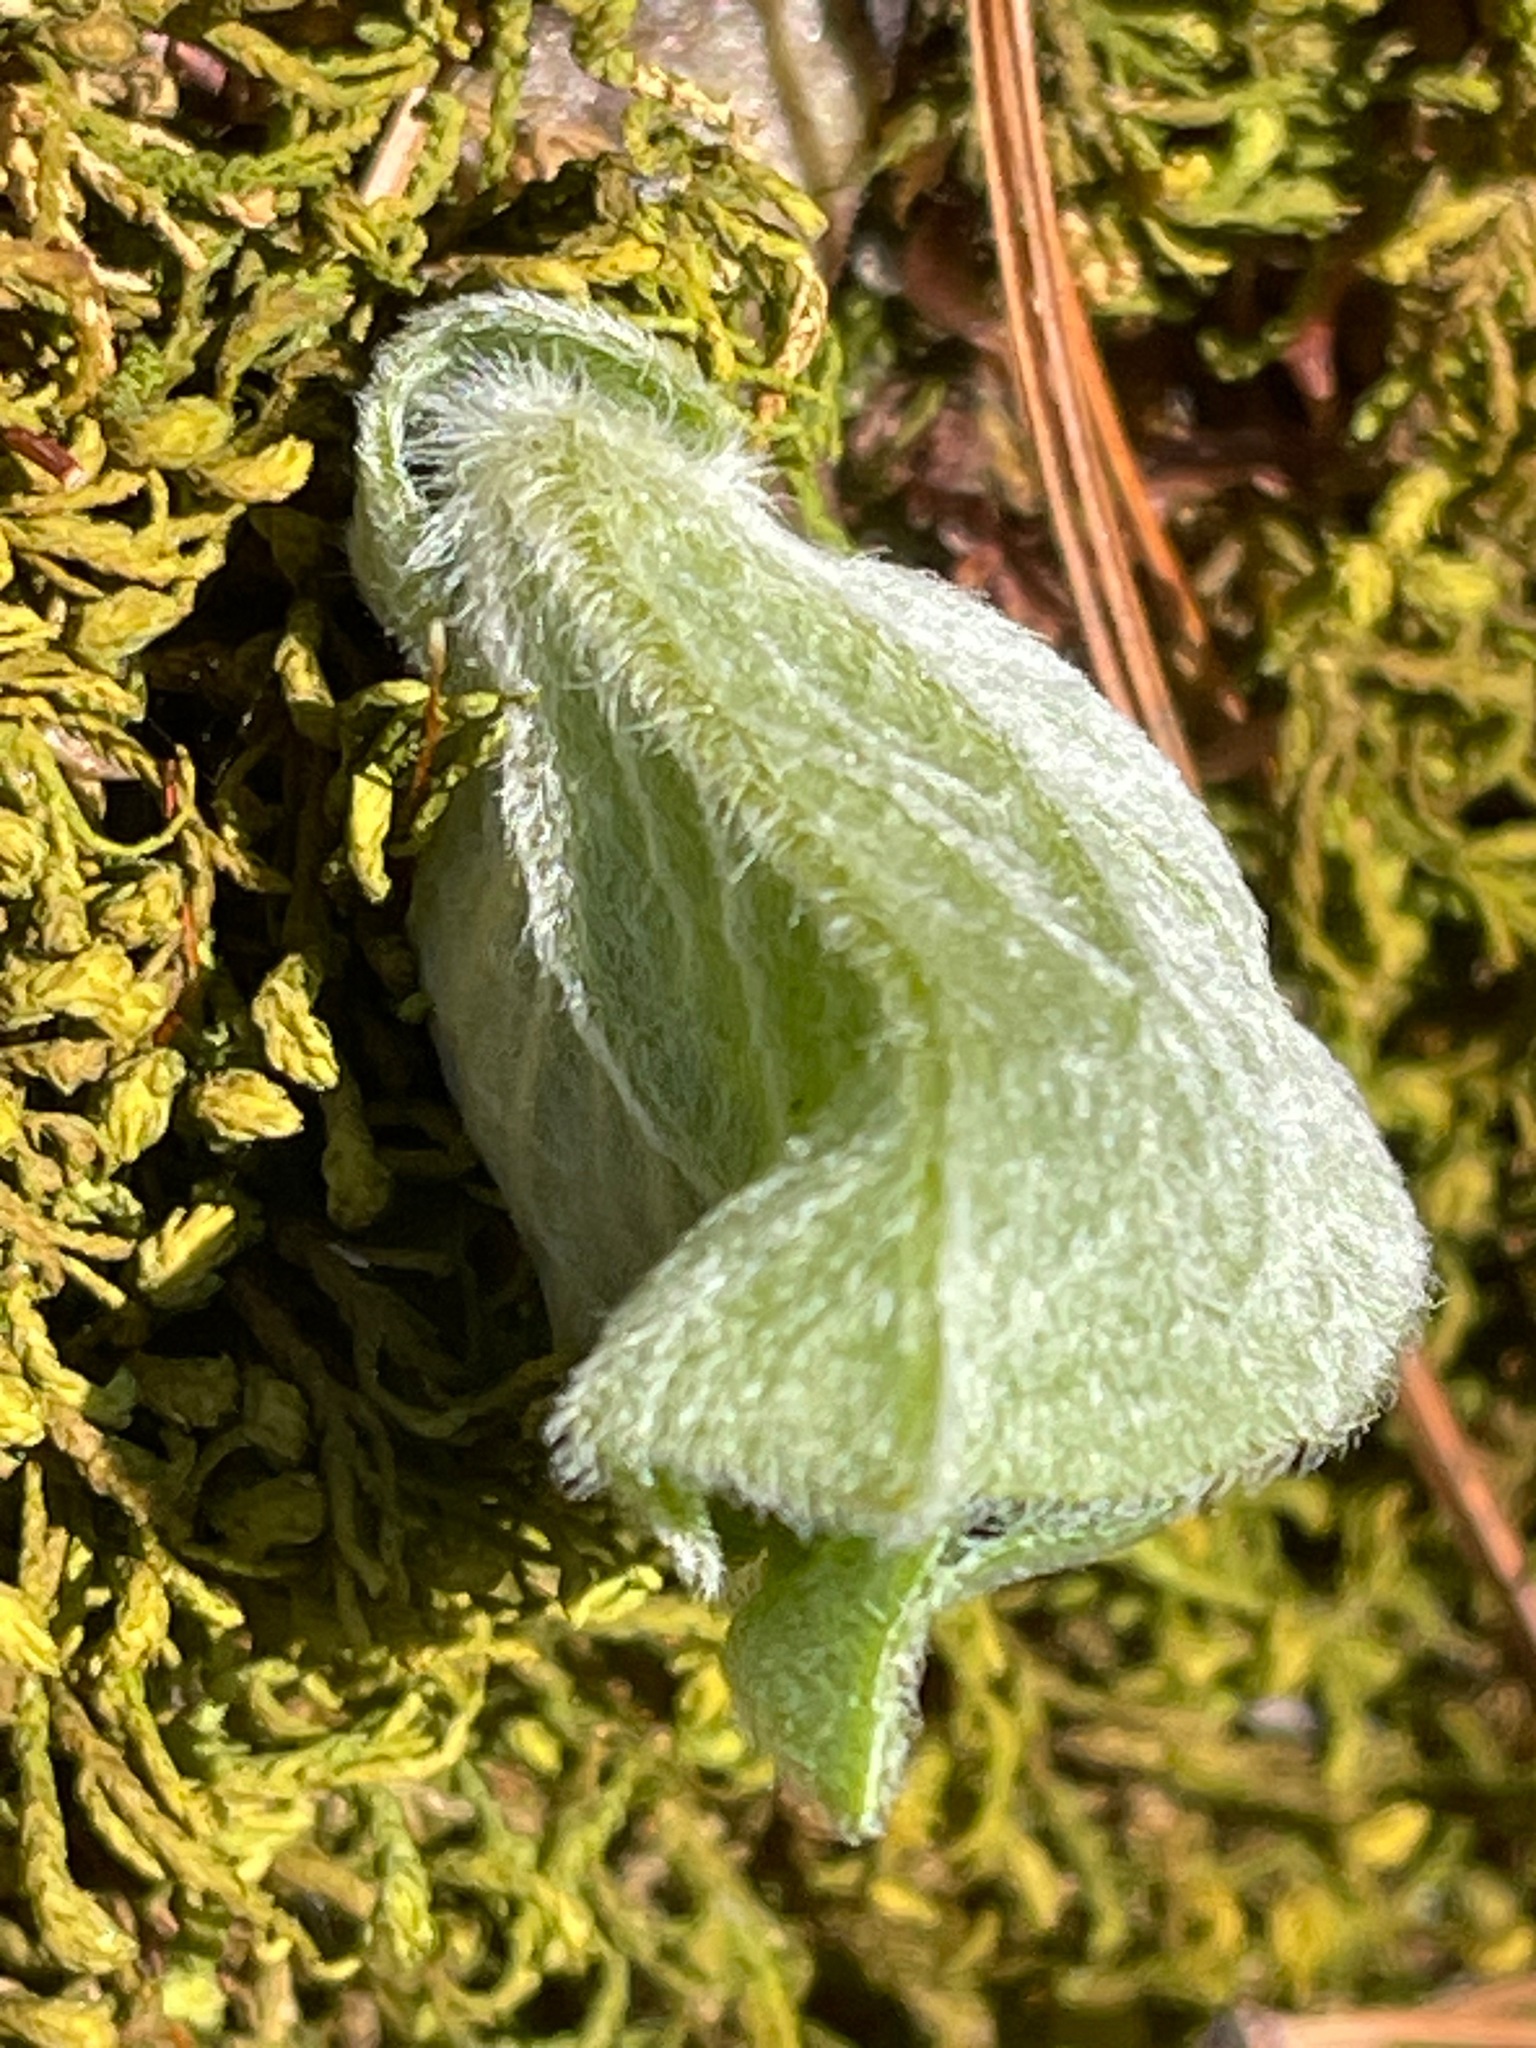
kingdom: Plantae
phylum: Tracheophyta
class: Magnoliopsida
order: Piperales
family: Aristolochiaceae
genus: Asarum
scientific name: Asarum canadense
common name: Wild ginger
